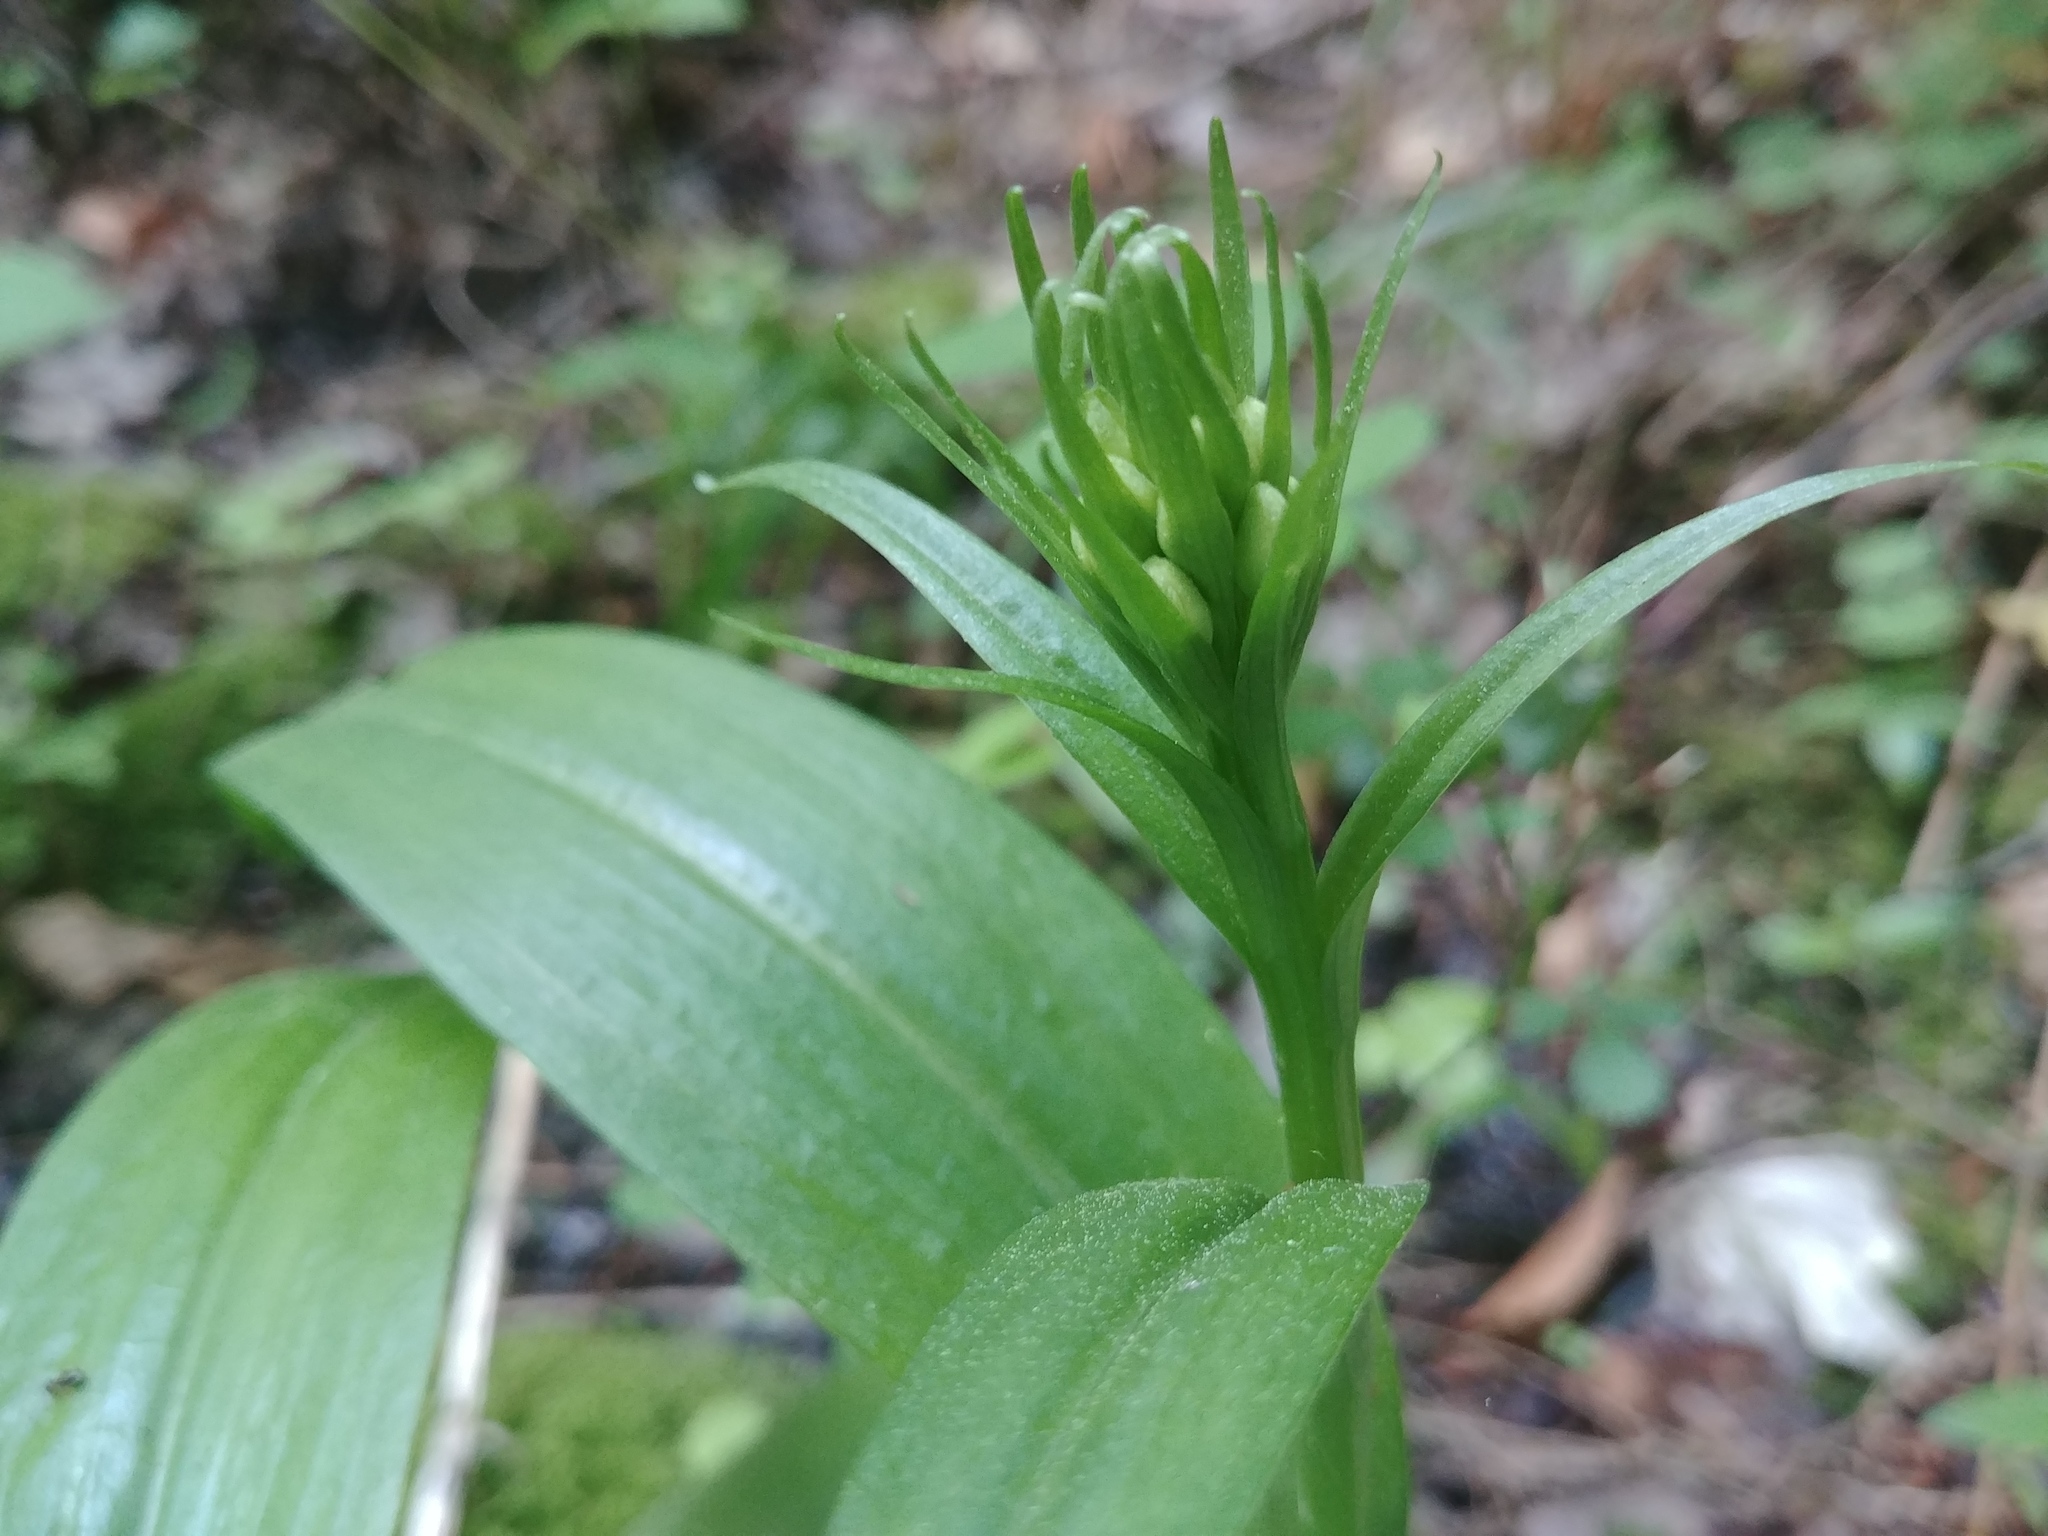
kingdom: Plantae
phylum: Tracheophyta
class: Liliopsida
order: Asparagales
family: Orchidaceae
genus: Platanthera
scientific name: Platanthera grandiflora
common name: Greater purple fringed orchid
